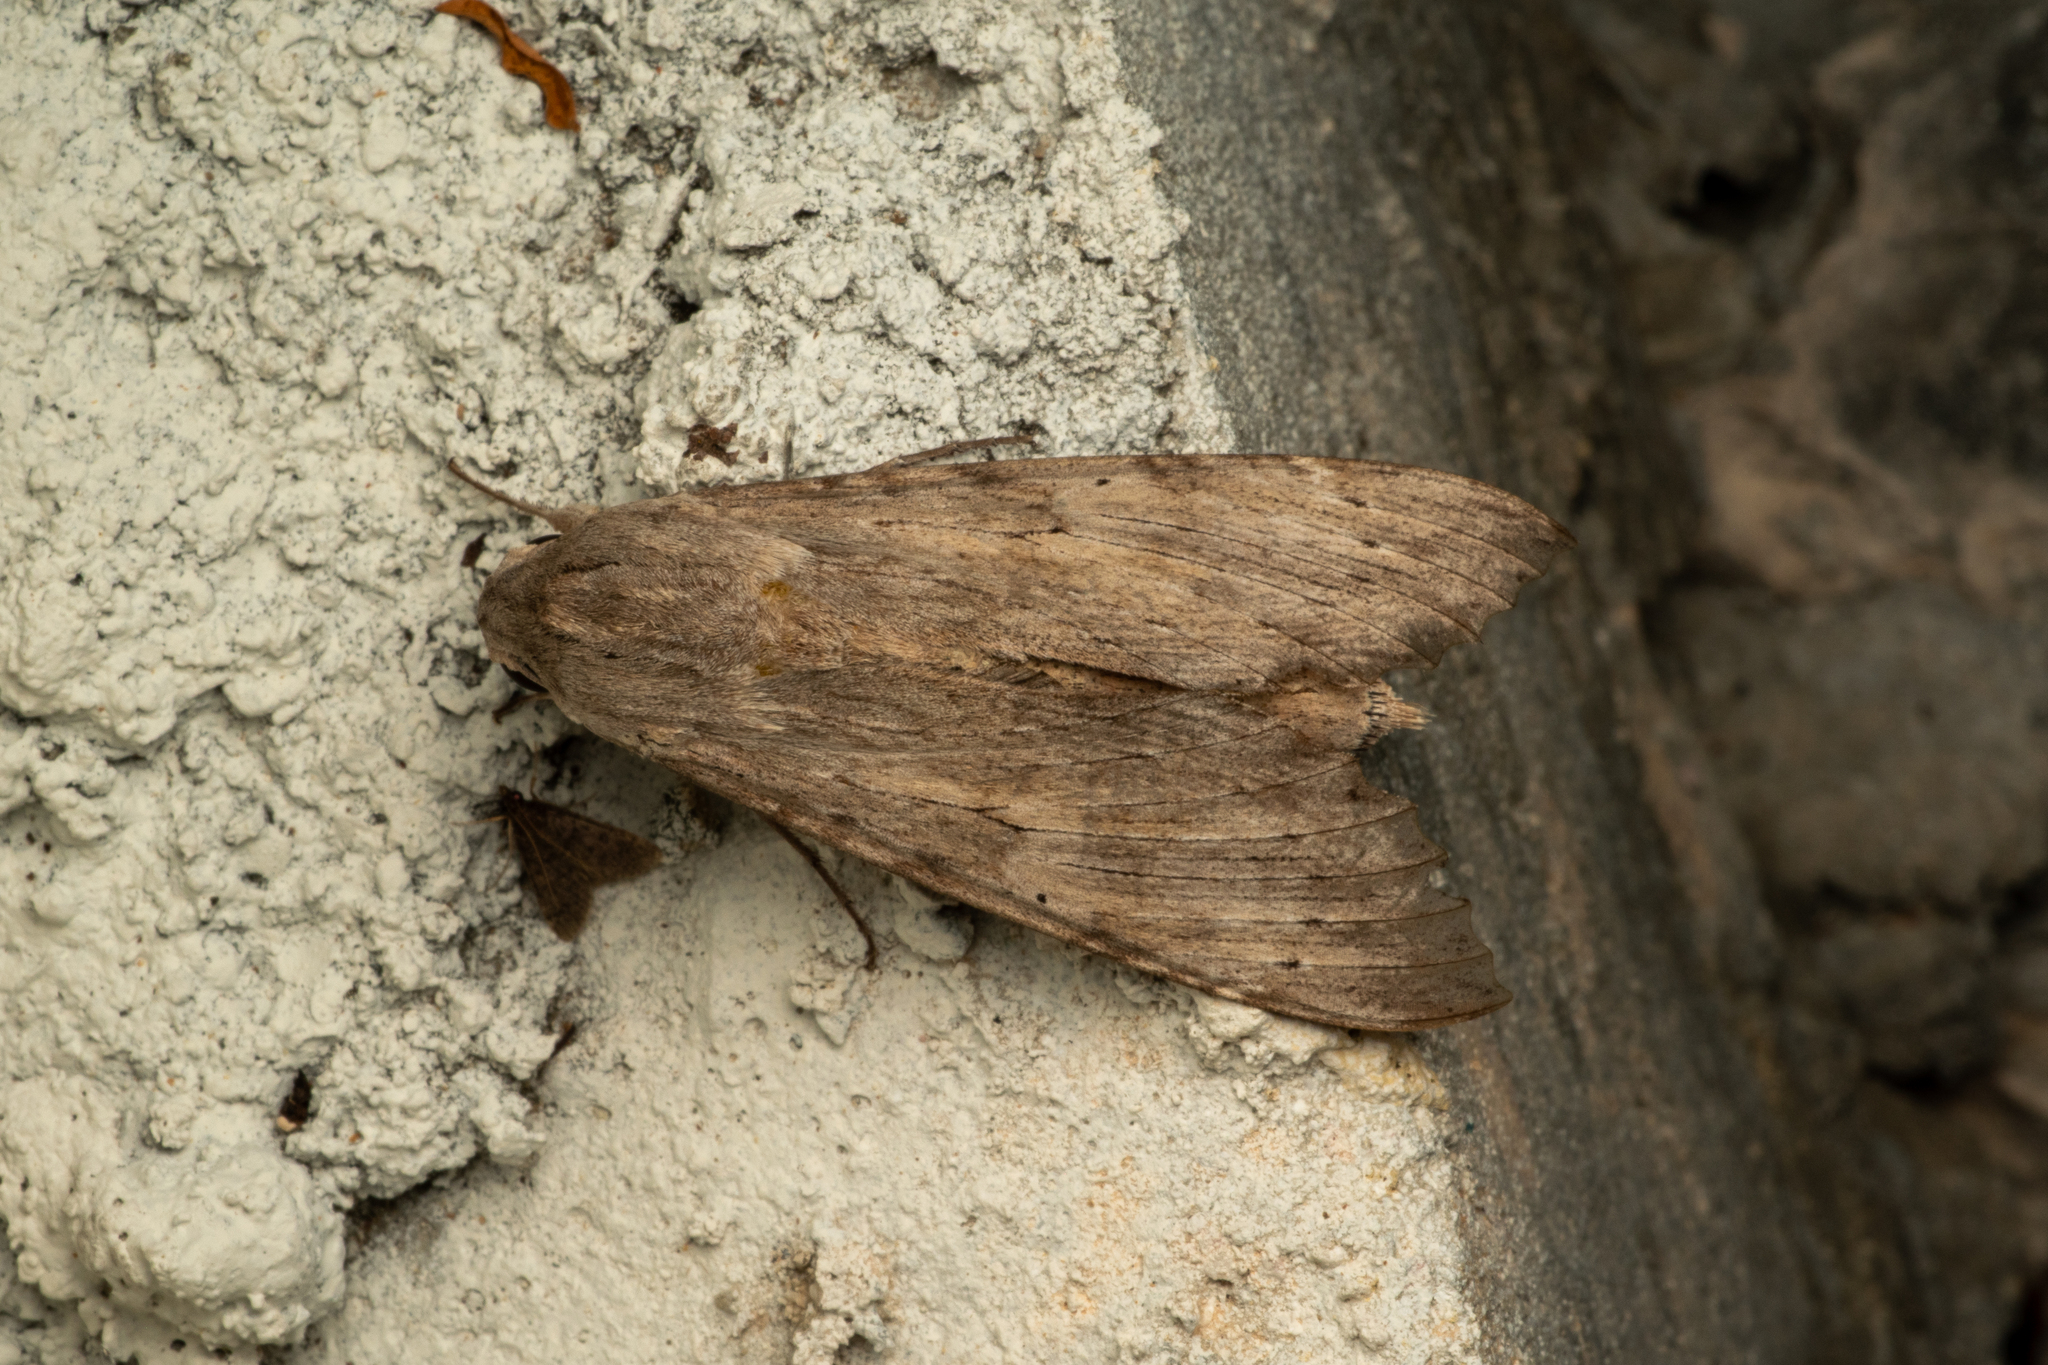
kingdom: Animalia
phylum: Arthropoda
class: Insecta
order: Lepidoptera
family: Sphingidae
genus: Erinnyis
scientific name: Erinnyis guttularis
